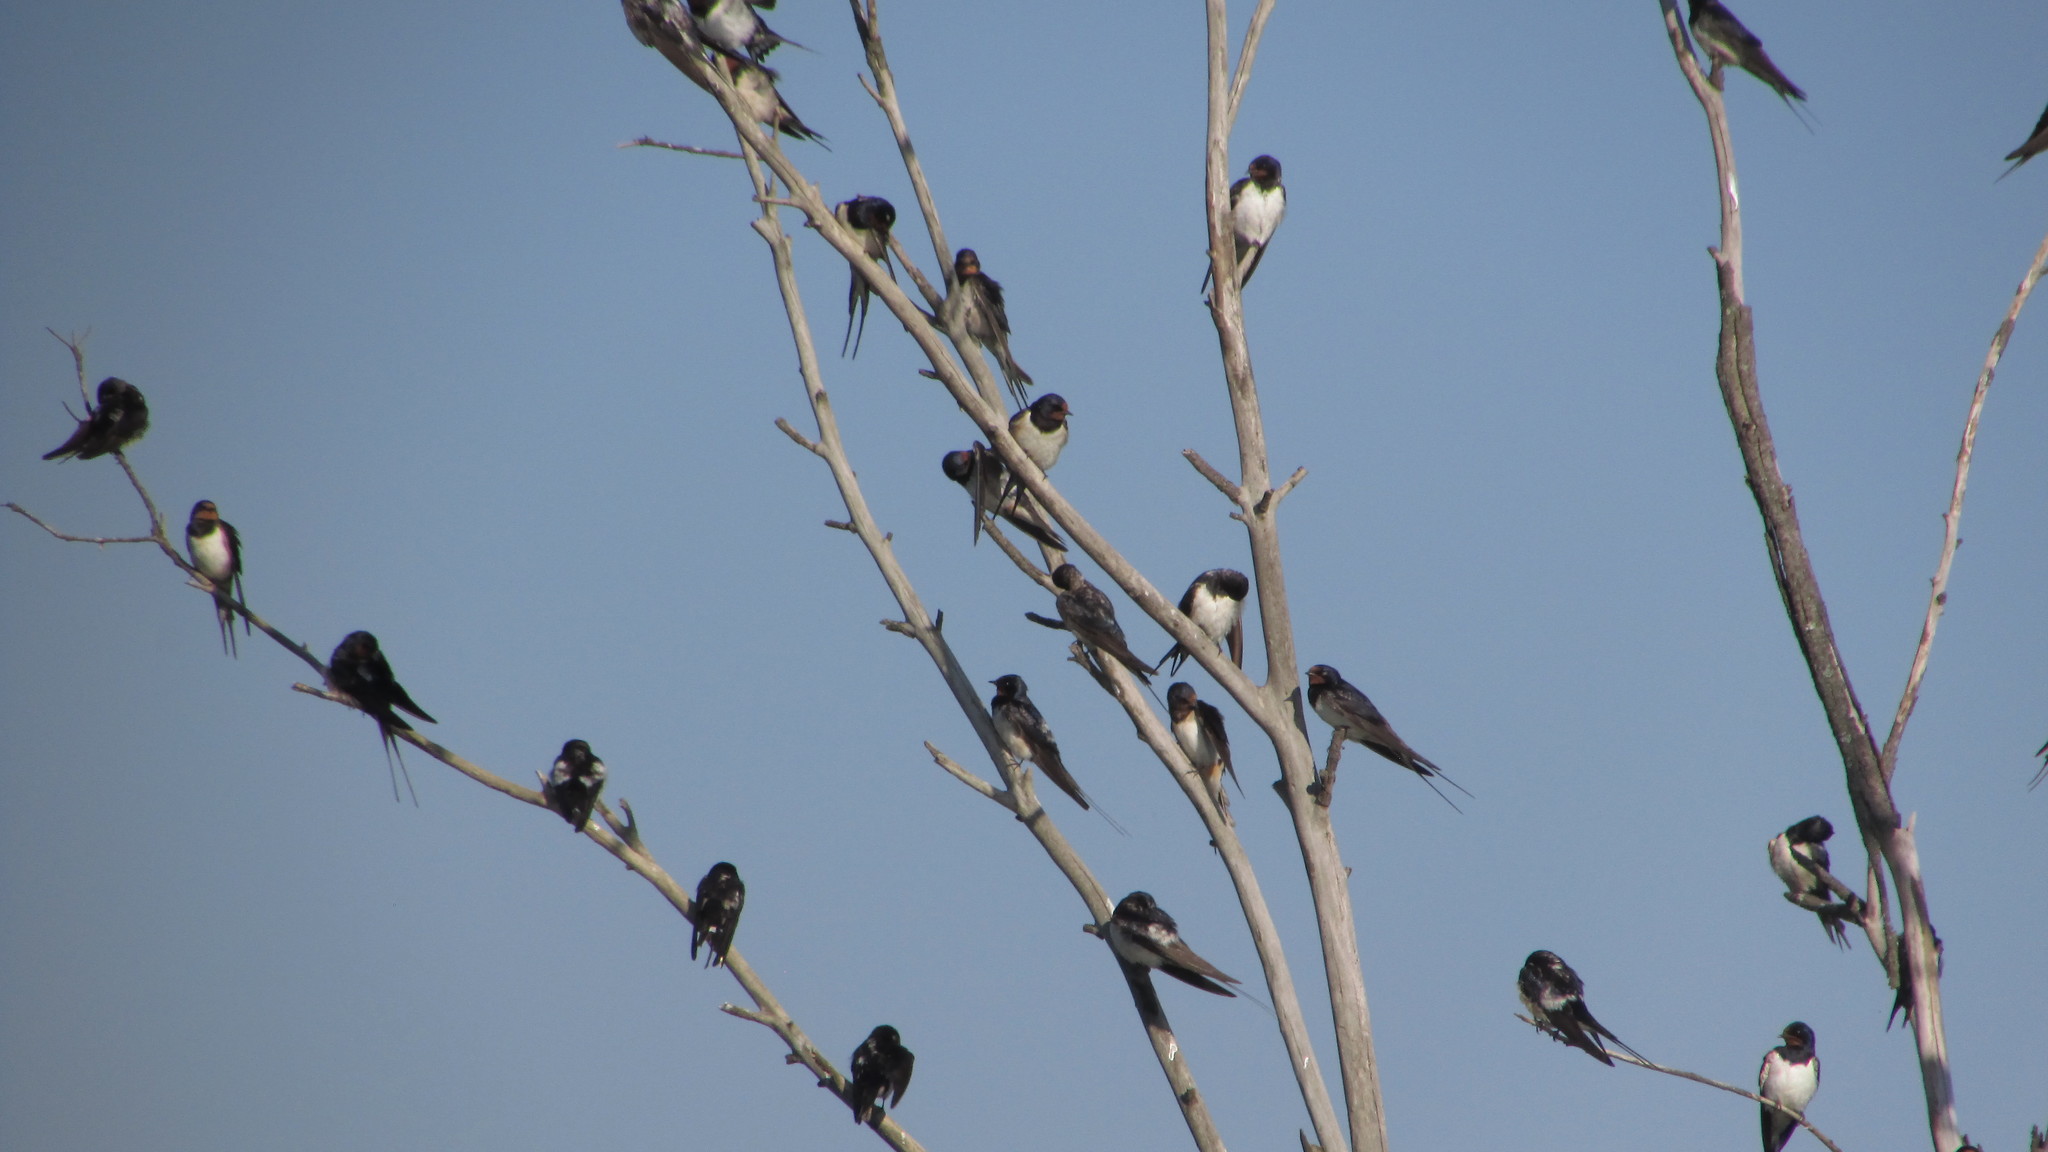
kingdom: Animalia
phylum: Chordata
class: Aves
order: Passeriformes
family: Hirundinidae
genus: Hirundo
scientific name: Hirundo rustica
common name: Barn swallow
